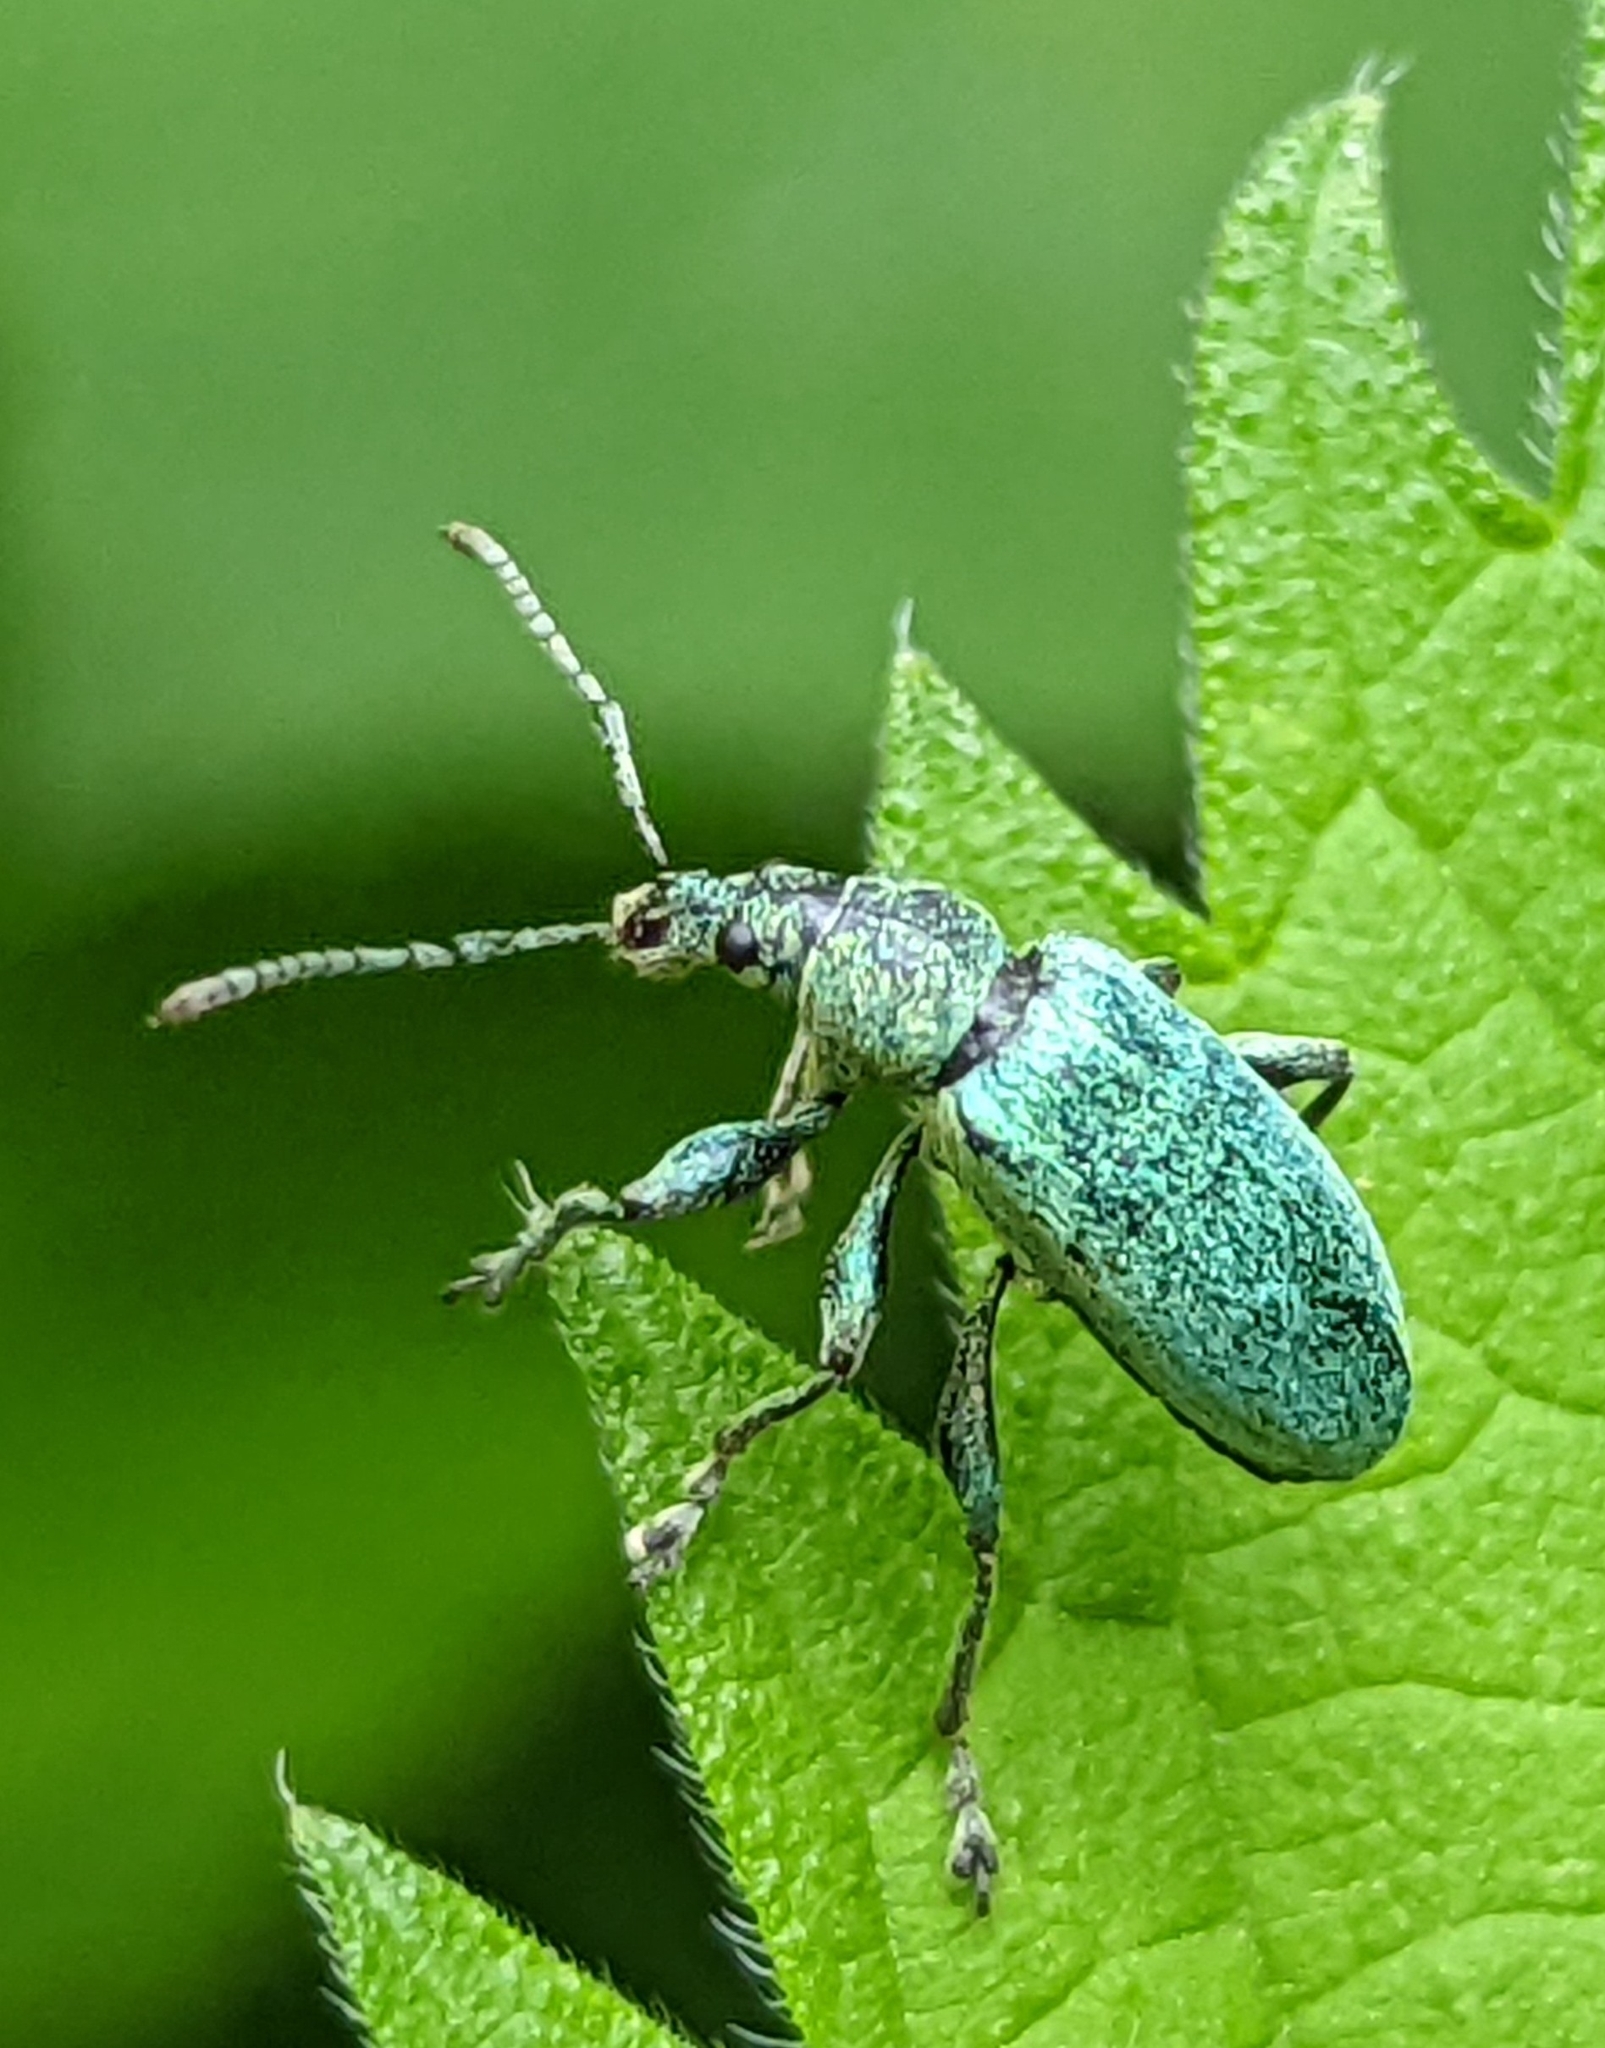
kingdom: Animalia
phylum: Arthropoda
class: Insecta
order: Coleoptera
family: Curculionidae
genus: Phyllobius
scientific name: Phyllobius pomaceus
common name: Green nettle weevil
